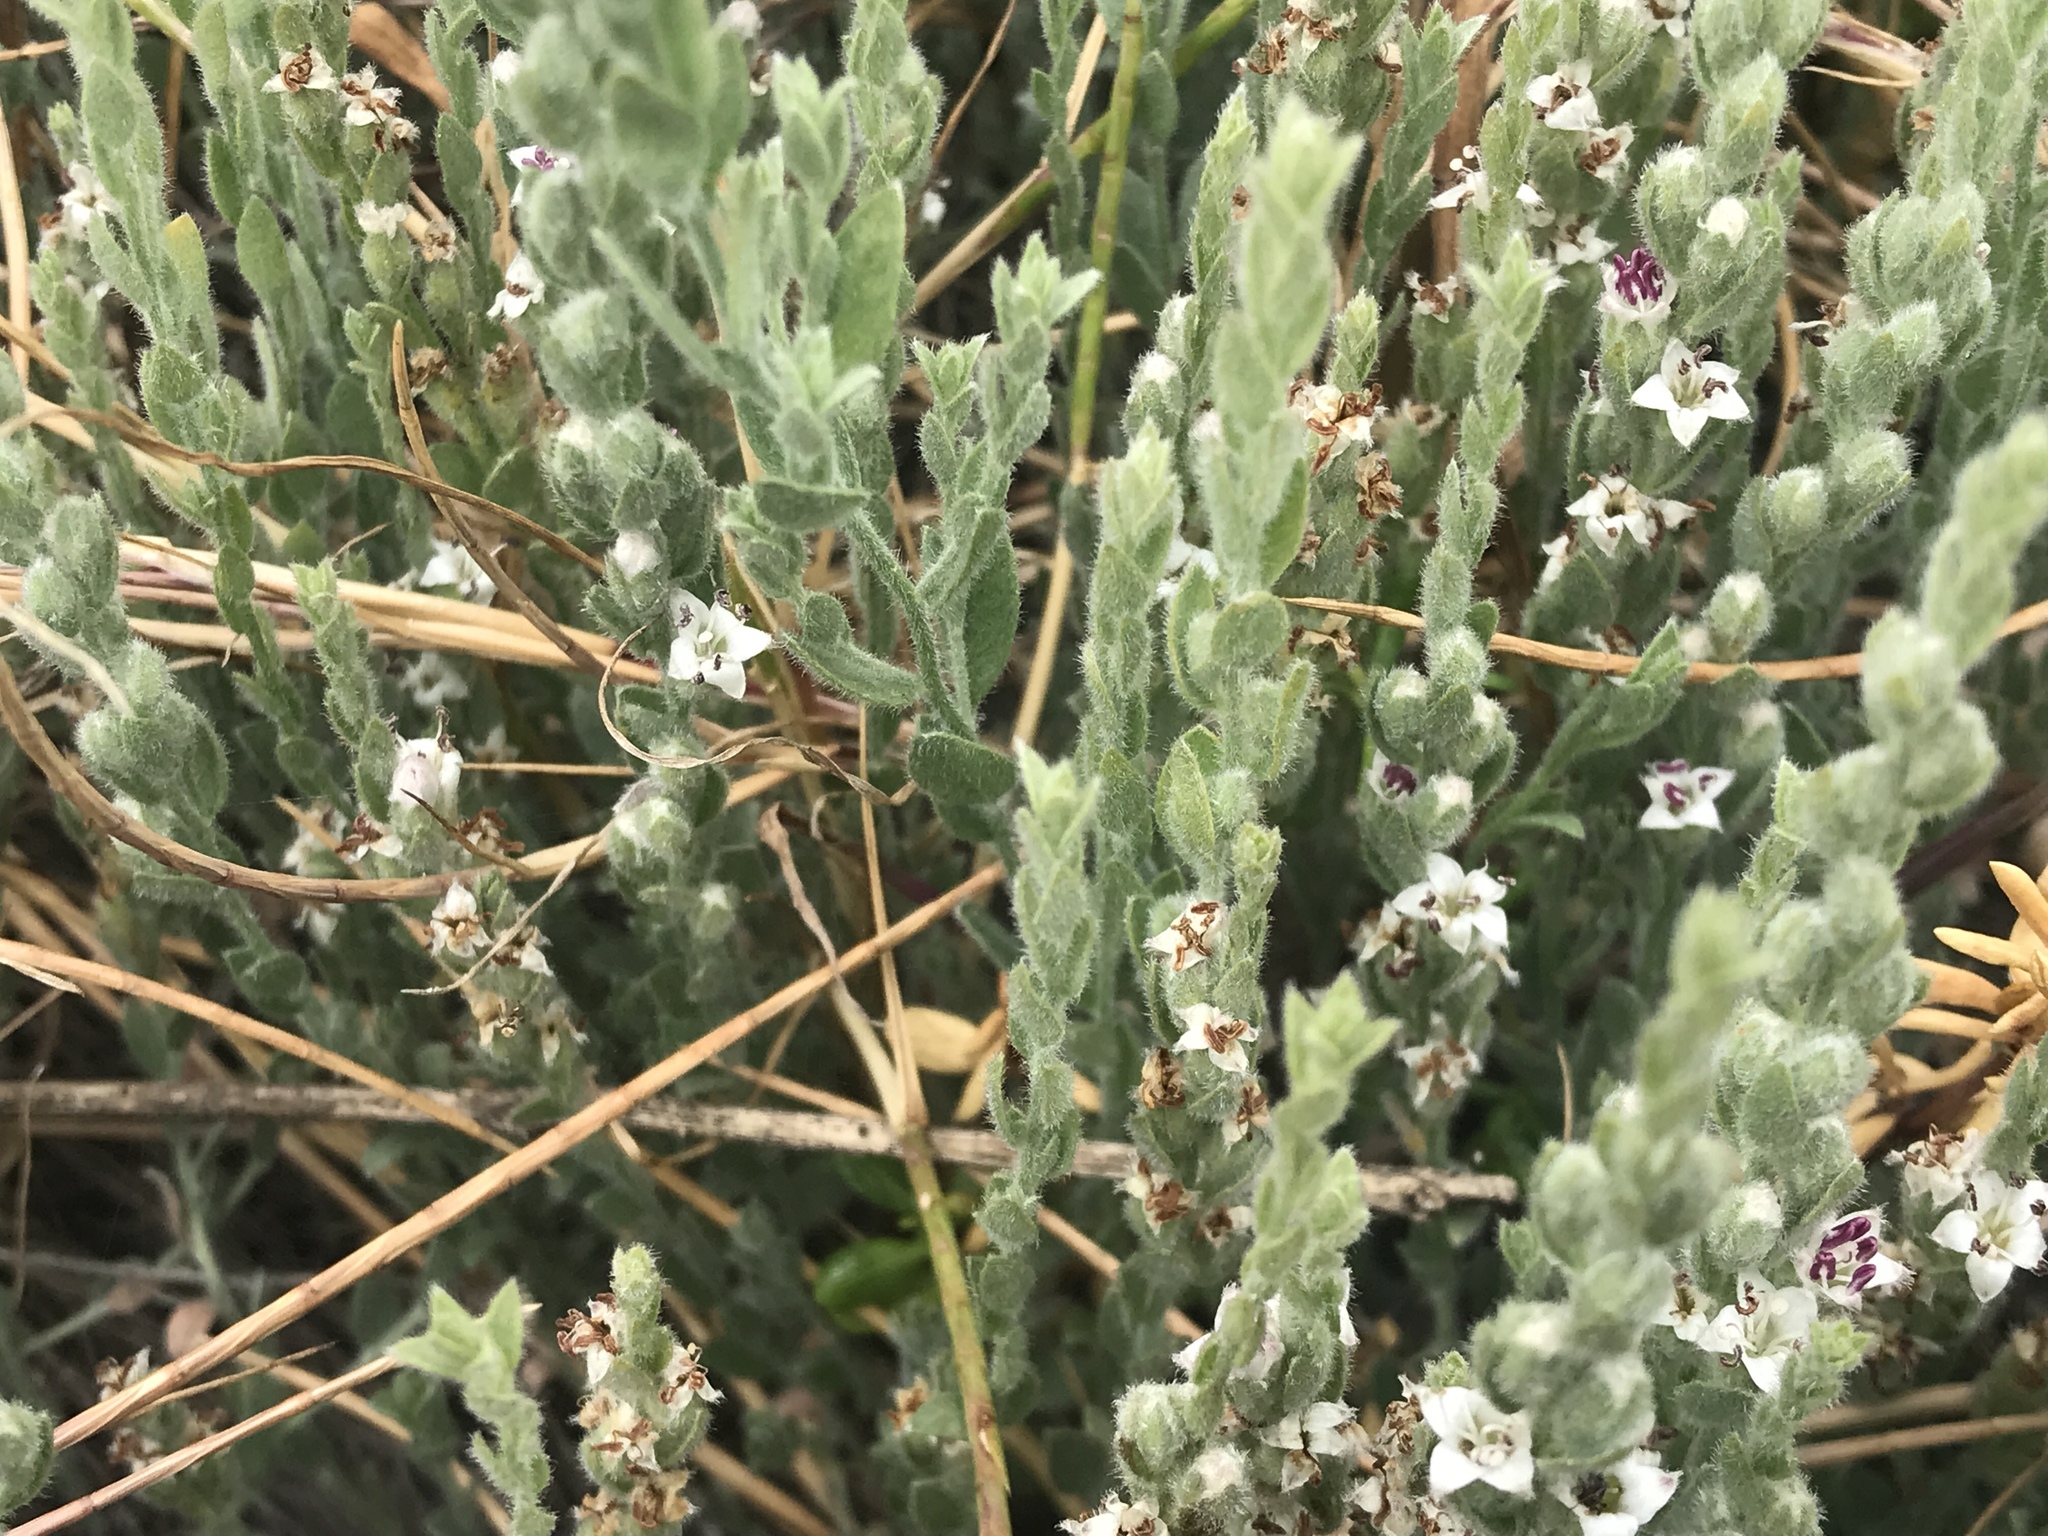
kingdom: Plantae
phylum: Tracheophyta
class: Magnoliopsida
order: Solanales
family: Convolvulaceae
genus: Cressa
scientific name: Cressa truxillensis
